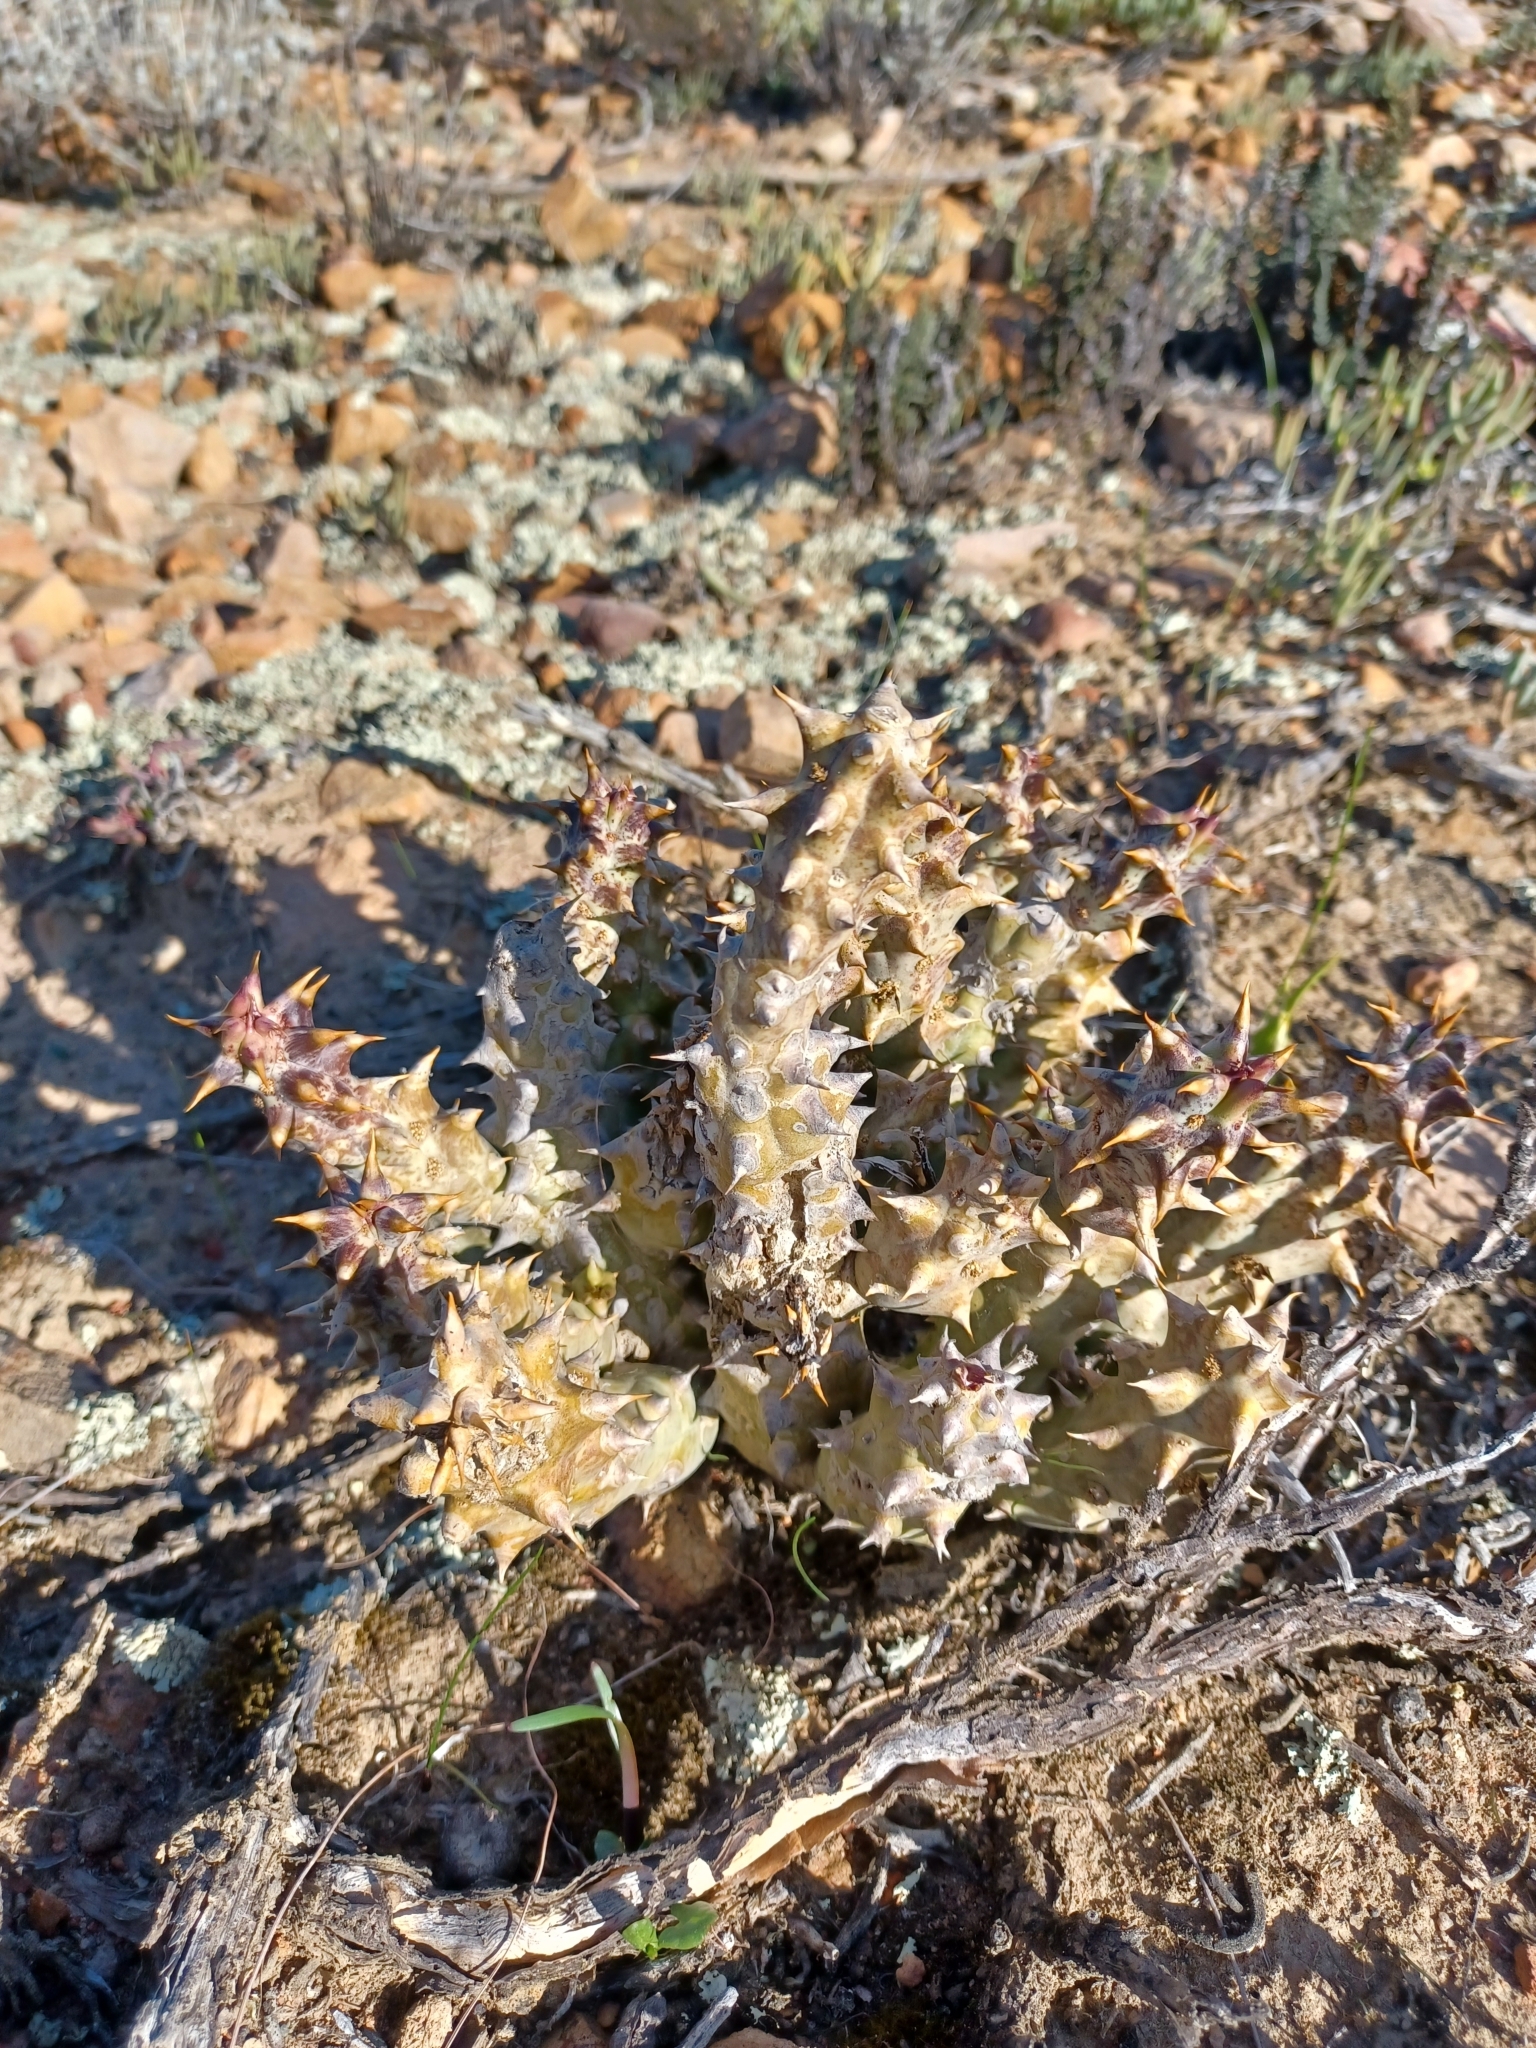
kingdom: Plantae
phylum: Tracheophyta
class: Magnoliopsida
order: Gentianales
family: Apocynaceae
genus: Ceropegia
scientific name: Ceropegia mammillaris
